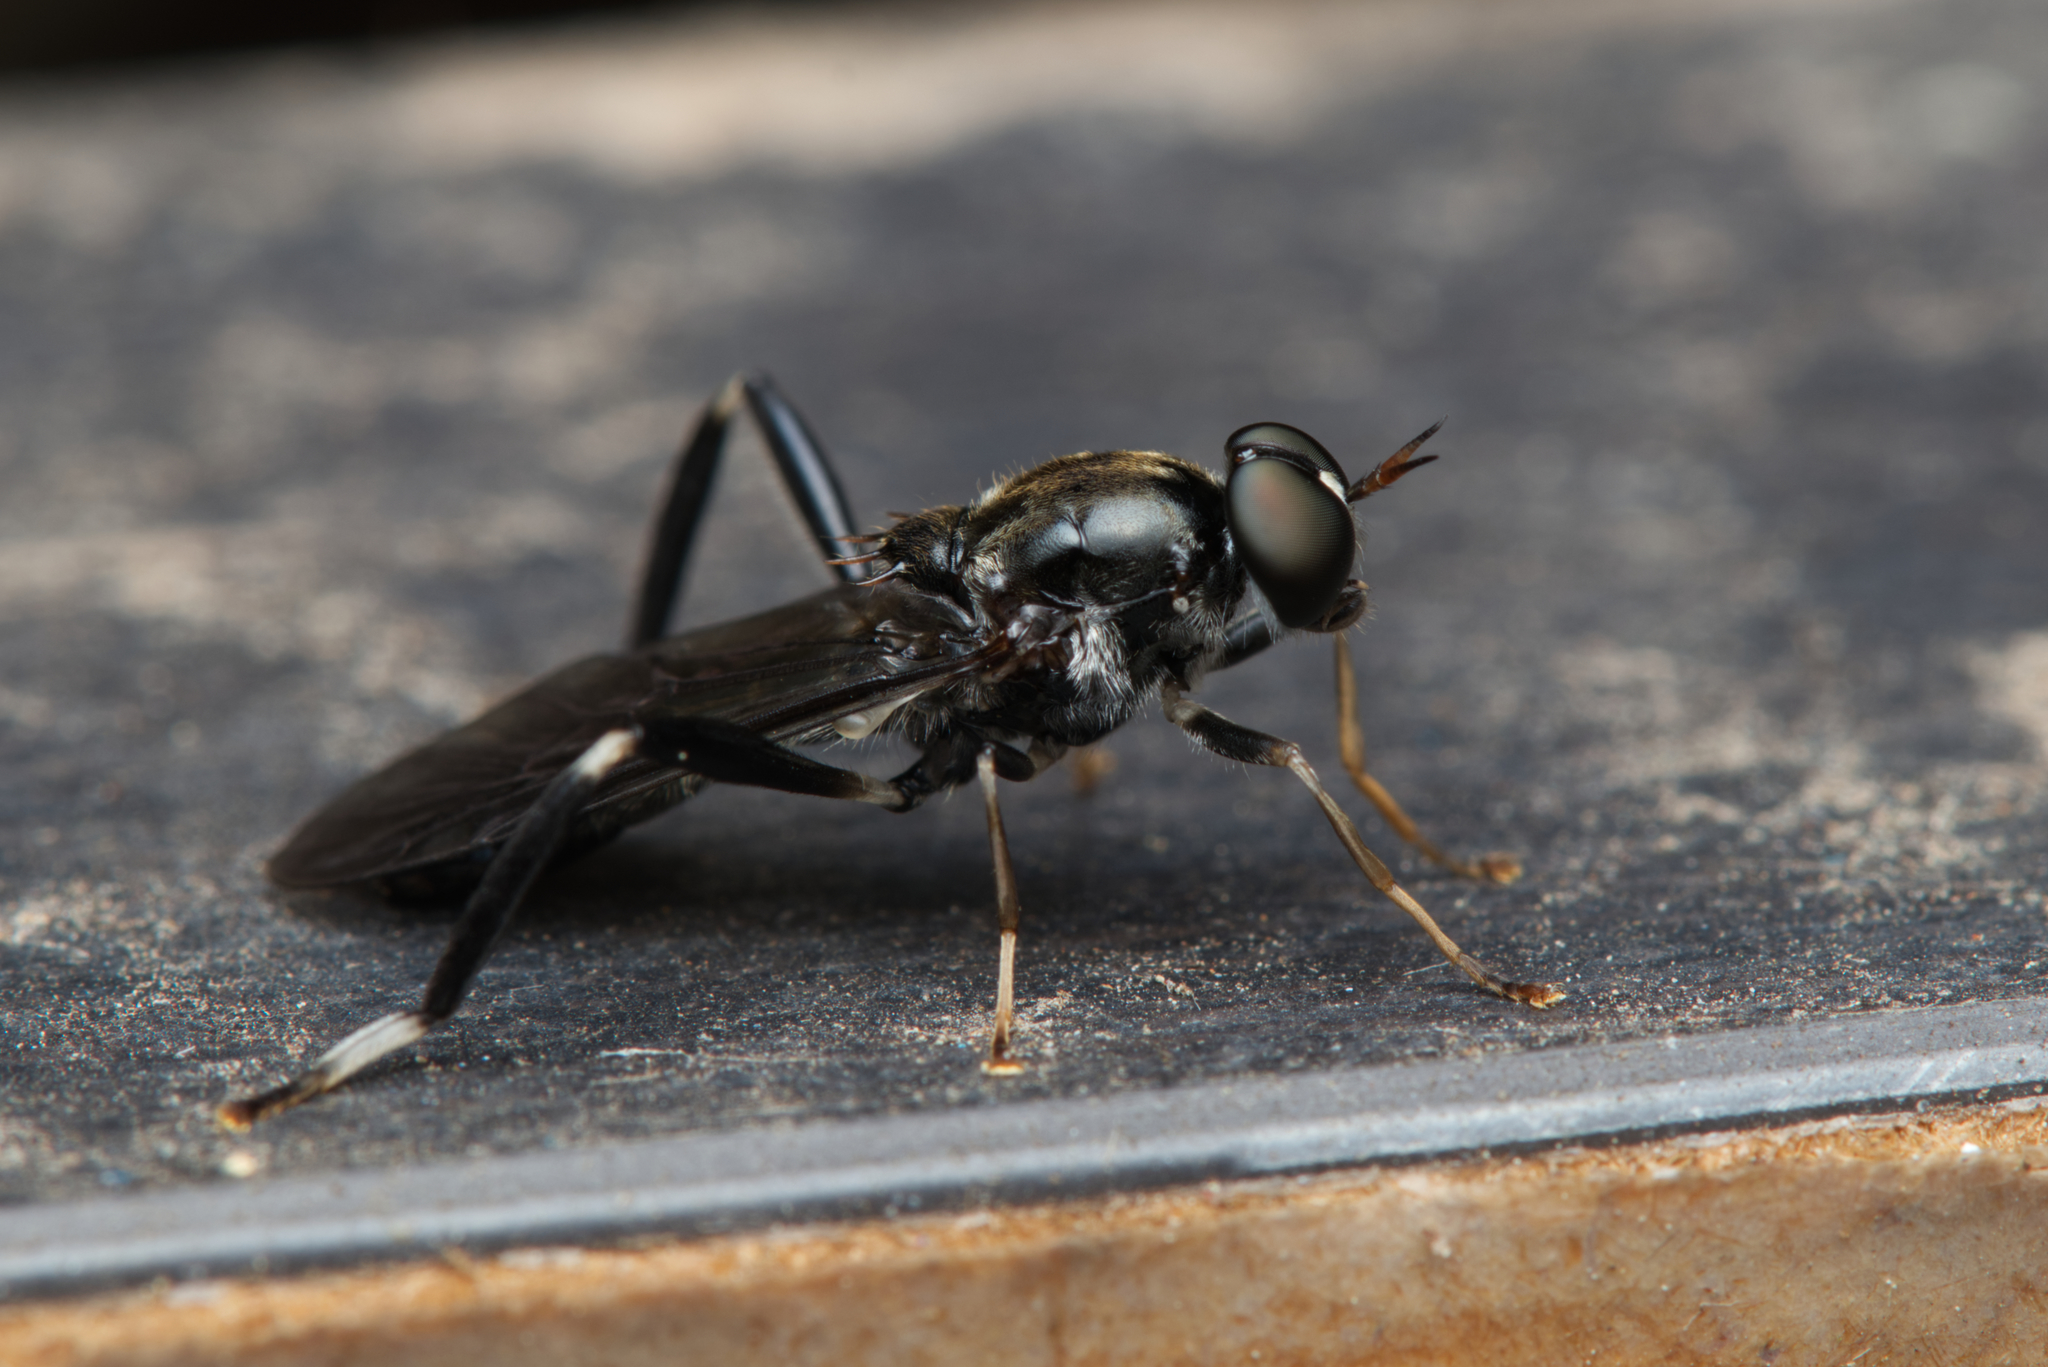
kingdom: Animalia
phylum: Arthropoda
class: Insecta
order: Diptera
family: Stratiomyidae
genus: Exaireta
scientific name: Exaireta spinigera
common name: Blue soldier fly
